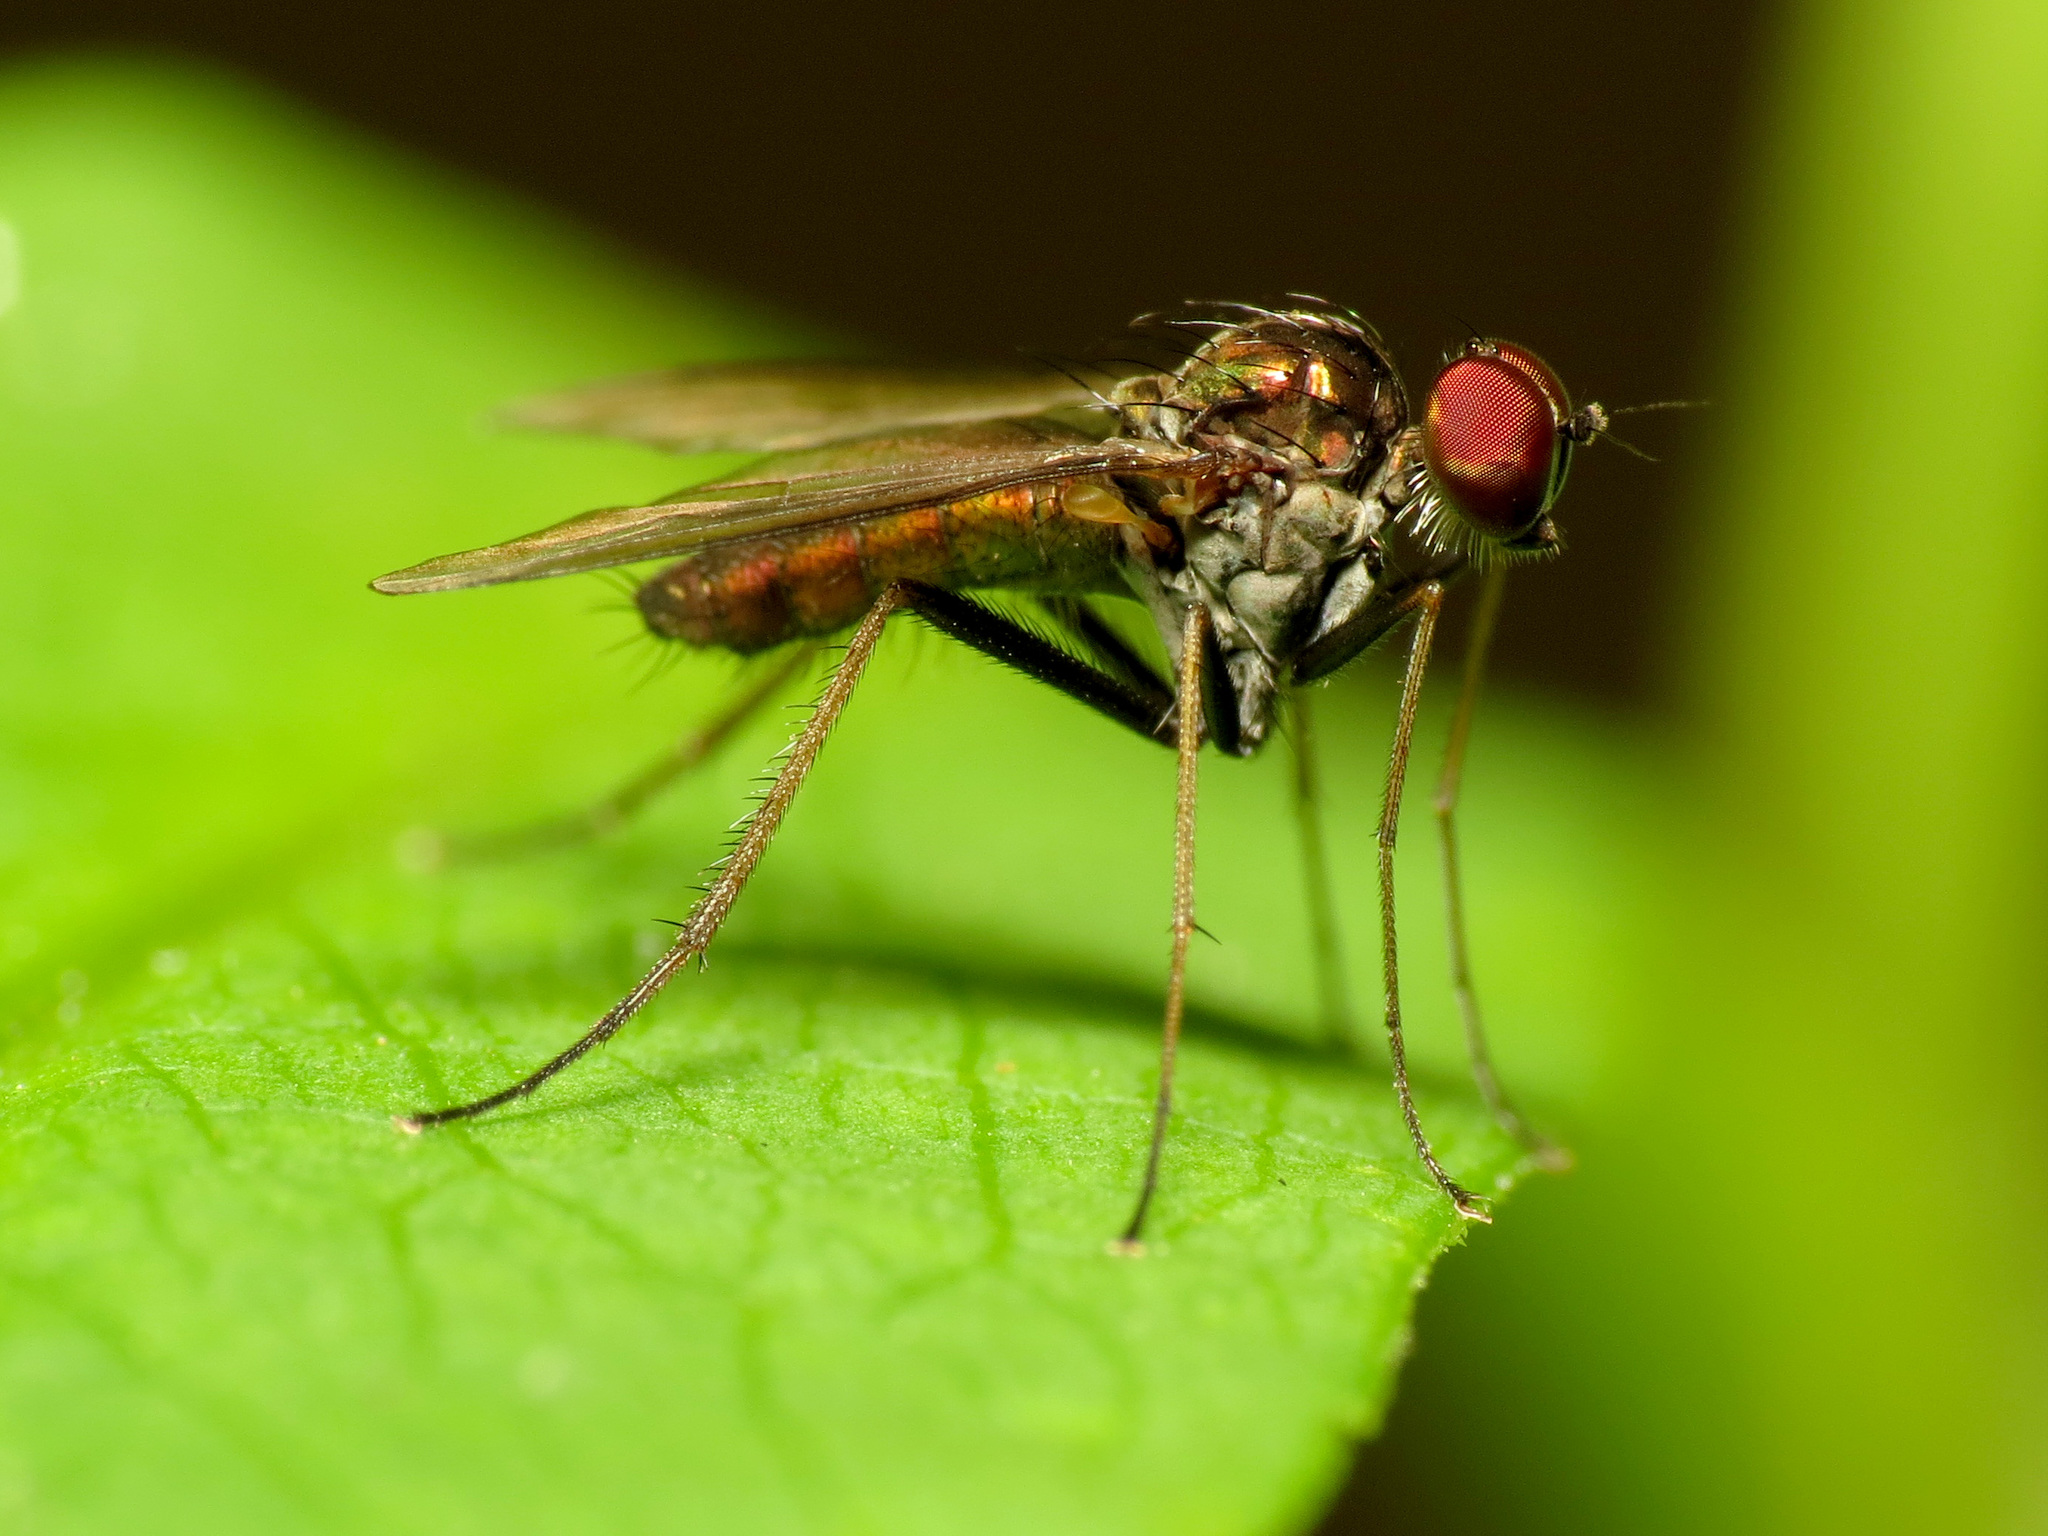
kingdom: Animalia
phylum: Arthropoda
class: Insecta
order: Diptera
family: Dolichopodidae
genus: Chrysotus
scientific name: Chrysotus spectabilis
